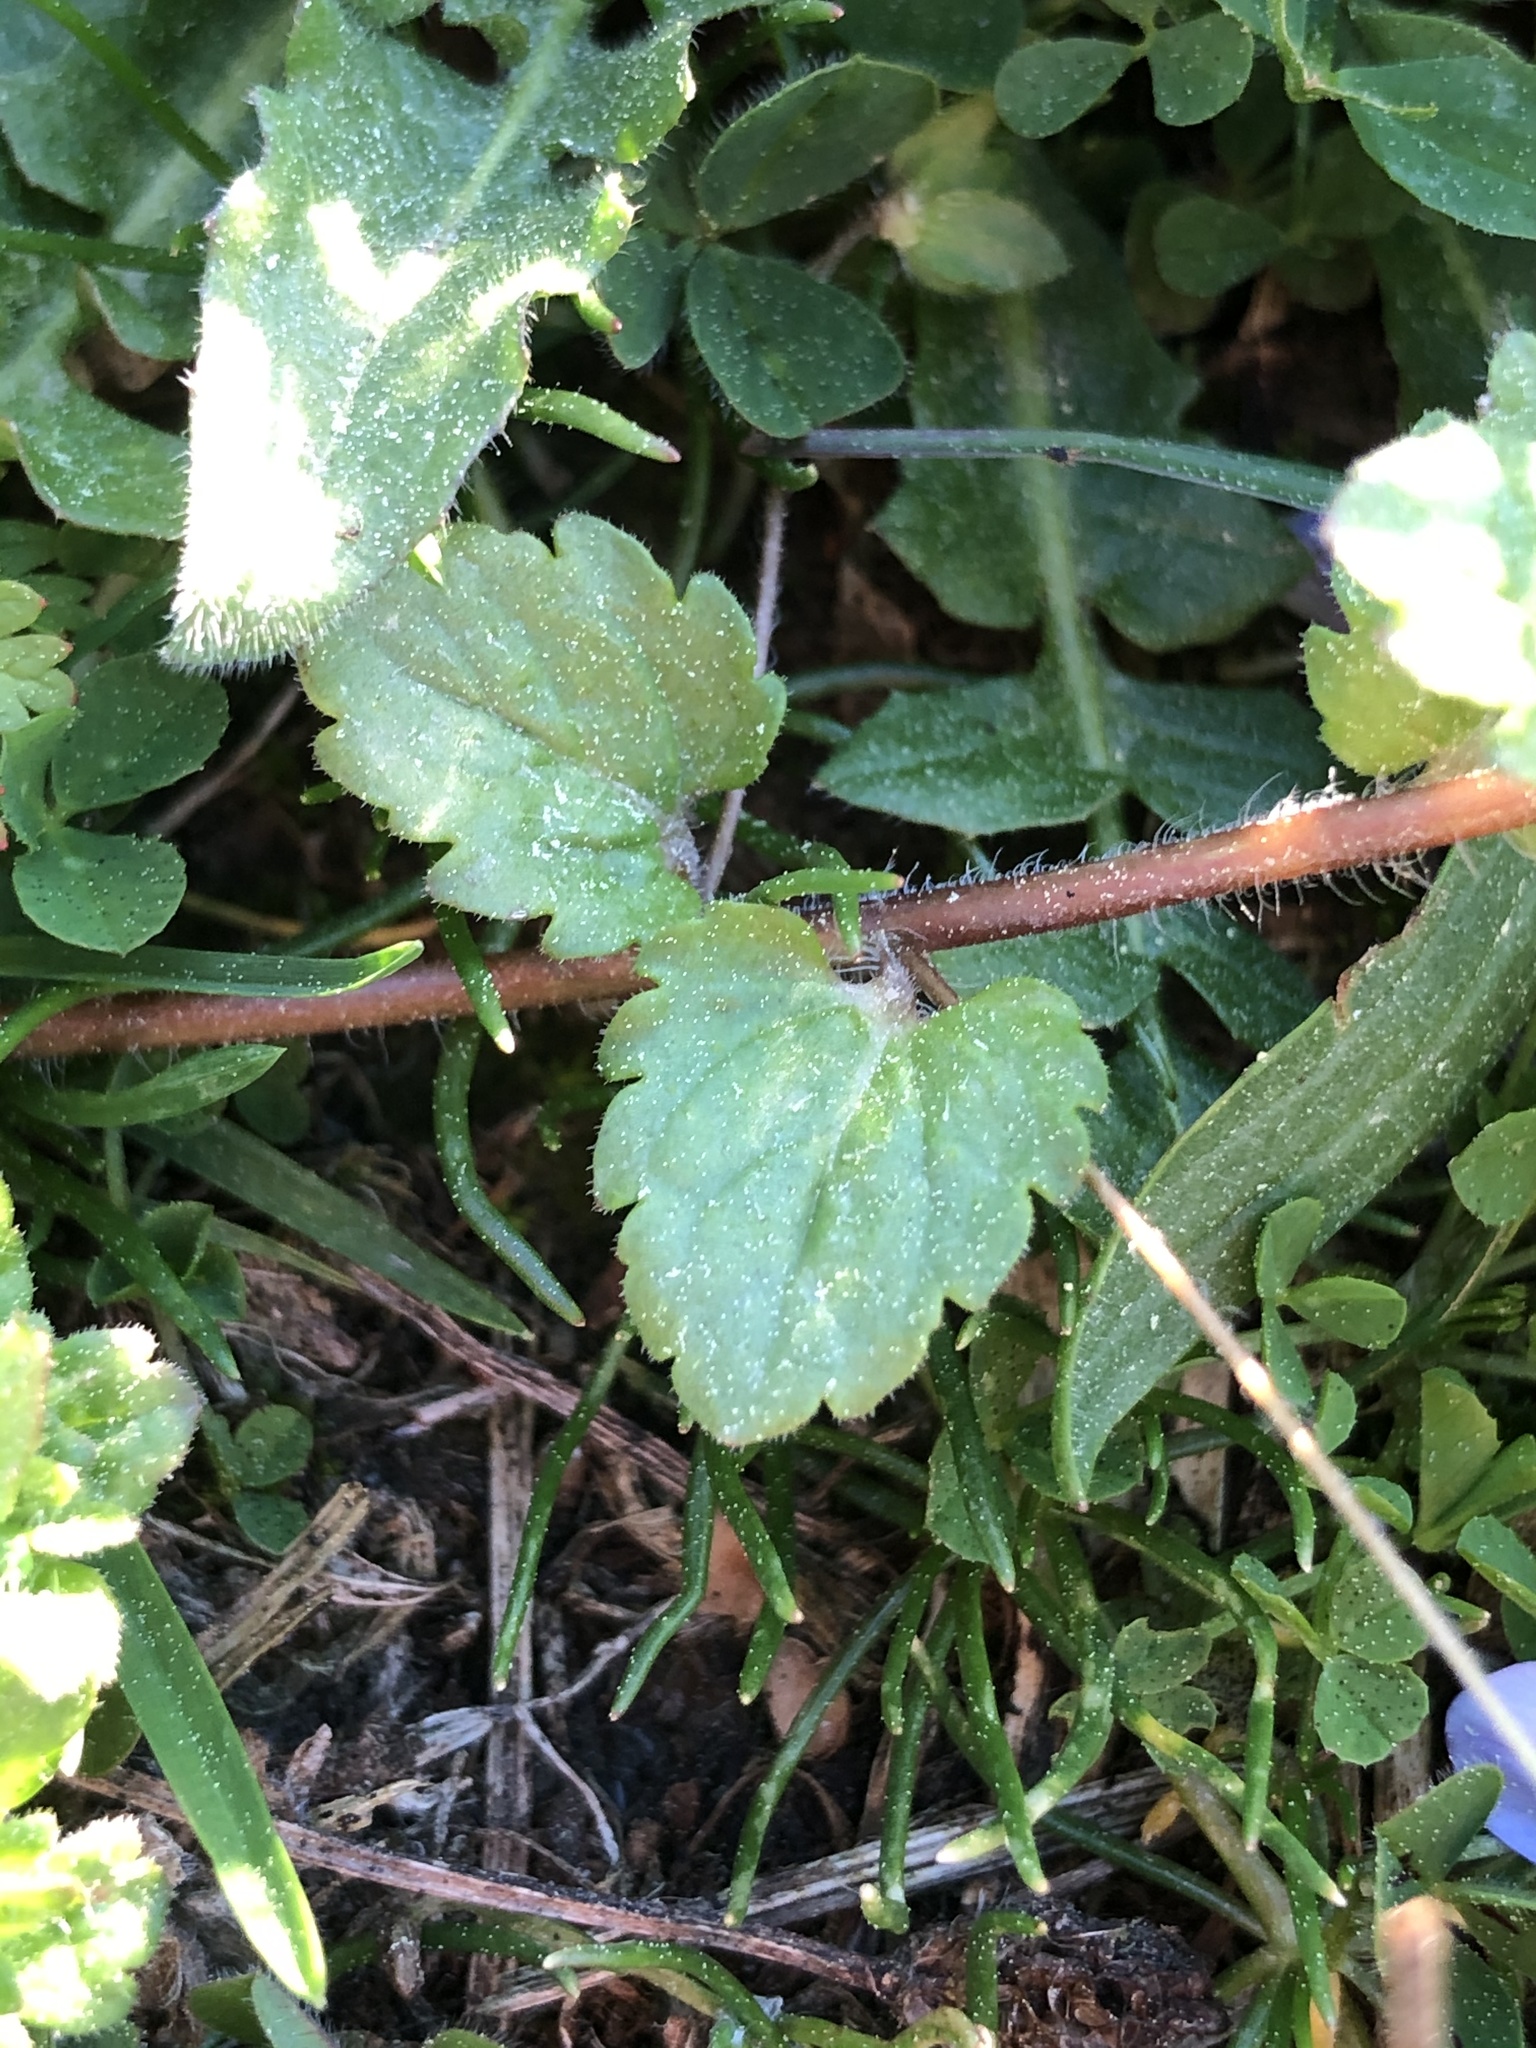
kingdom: Plantae
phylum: Tracheophyta
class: Magnoliopsida
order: Lamiales
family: Plantaginaceae
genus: Veronica
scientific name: Veronica persica
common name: Common field-speedwell
